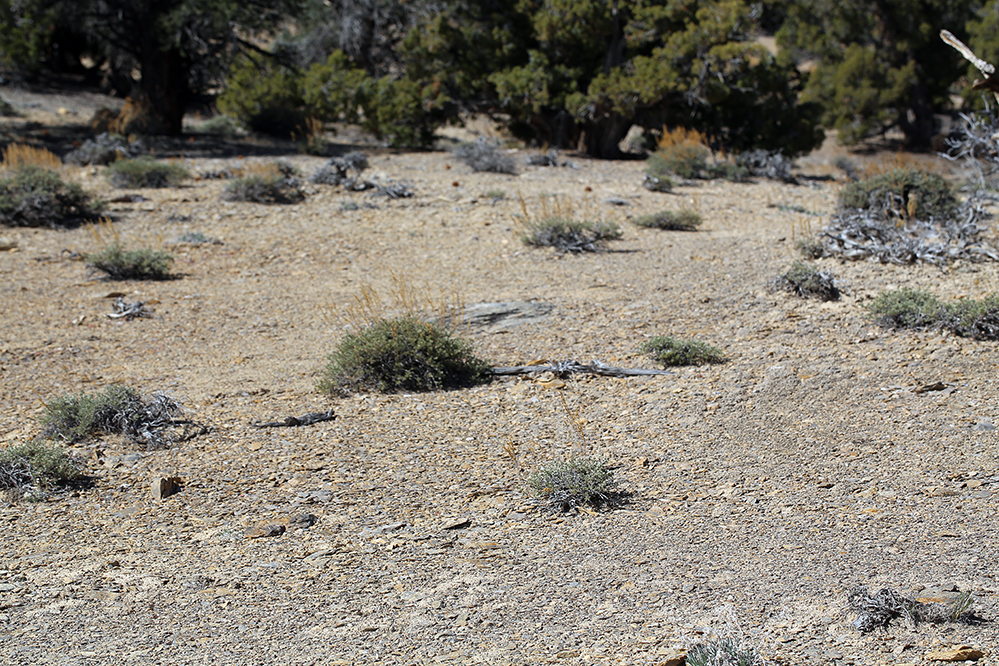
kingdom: Plantae
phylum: Tracheophyta
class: Magnoliopsida
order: Apiales
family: Apiaceae
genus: Vesper
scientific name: Vesper purpurascens
